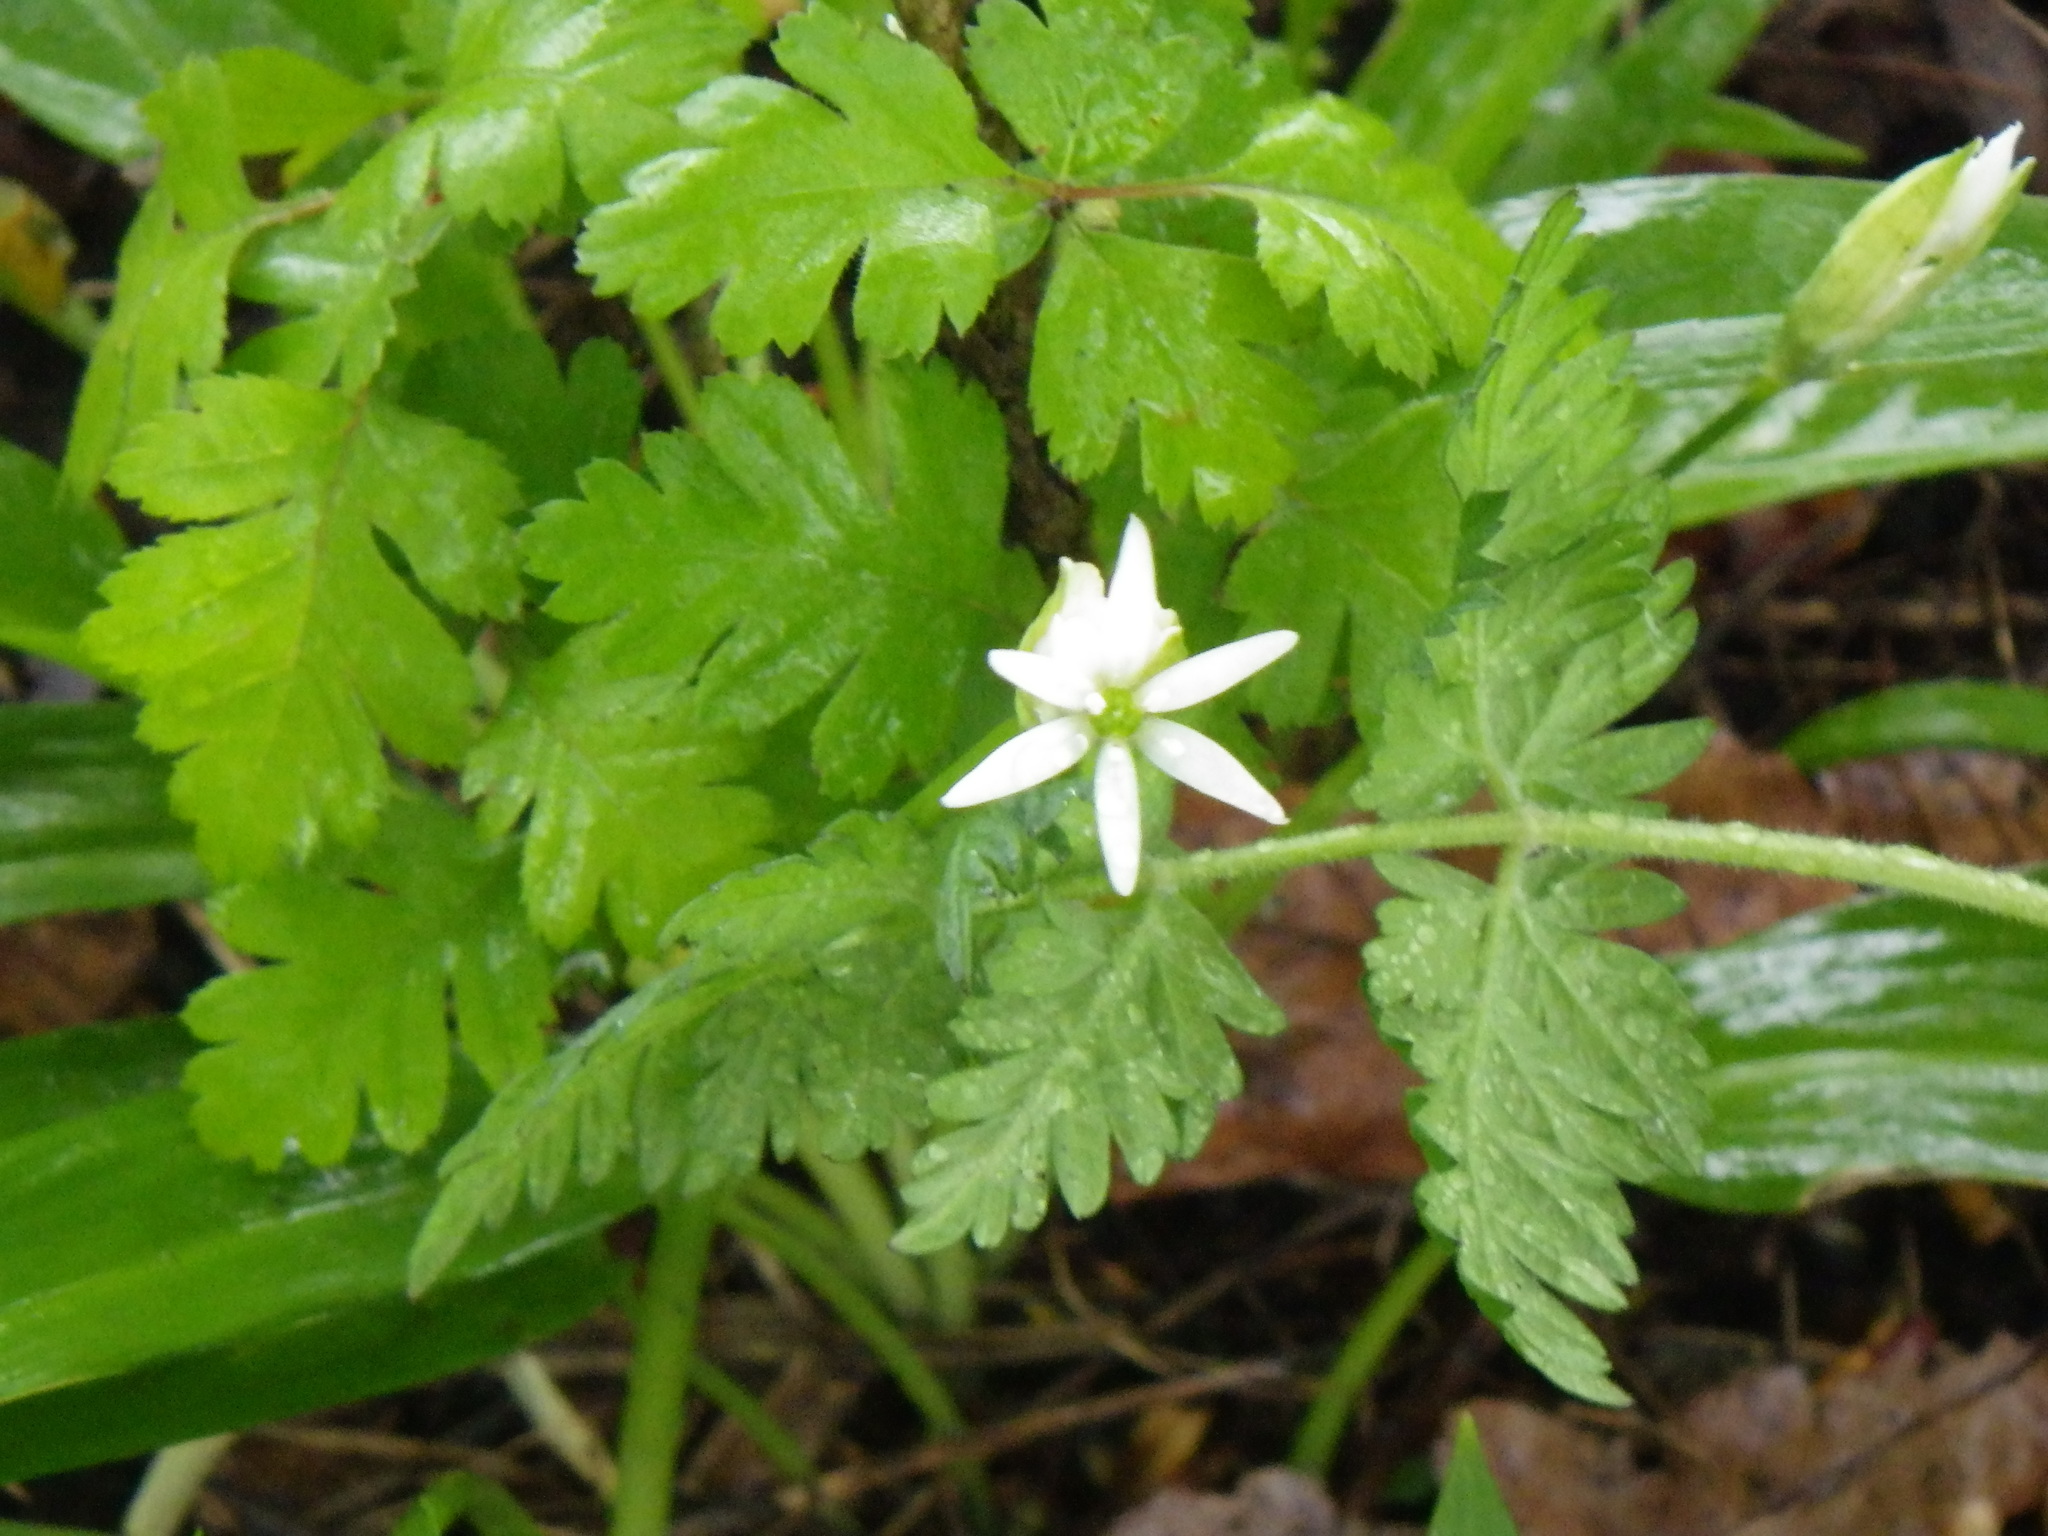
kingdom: Plantae
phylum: Tracheophyta
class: Liliopsida
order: Asparagales
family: Amaryllidaceae
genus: Allium
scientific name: Allium ursinum
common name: Ramsons
